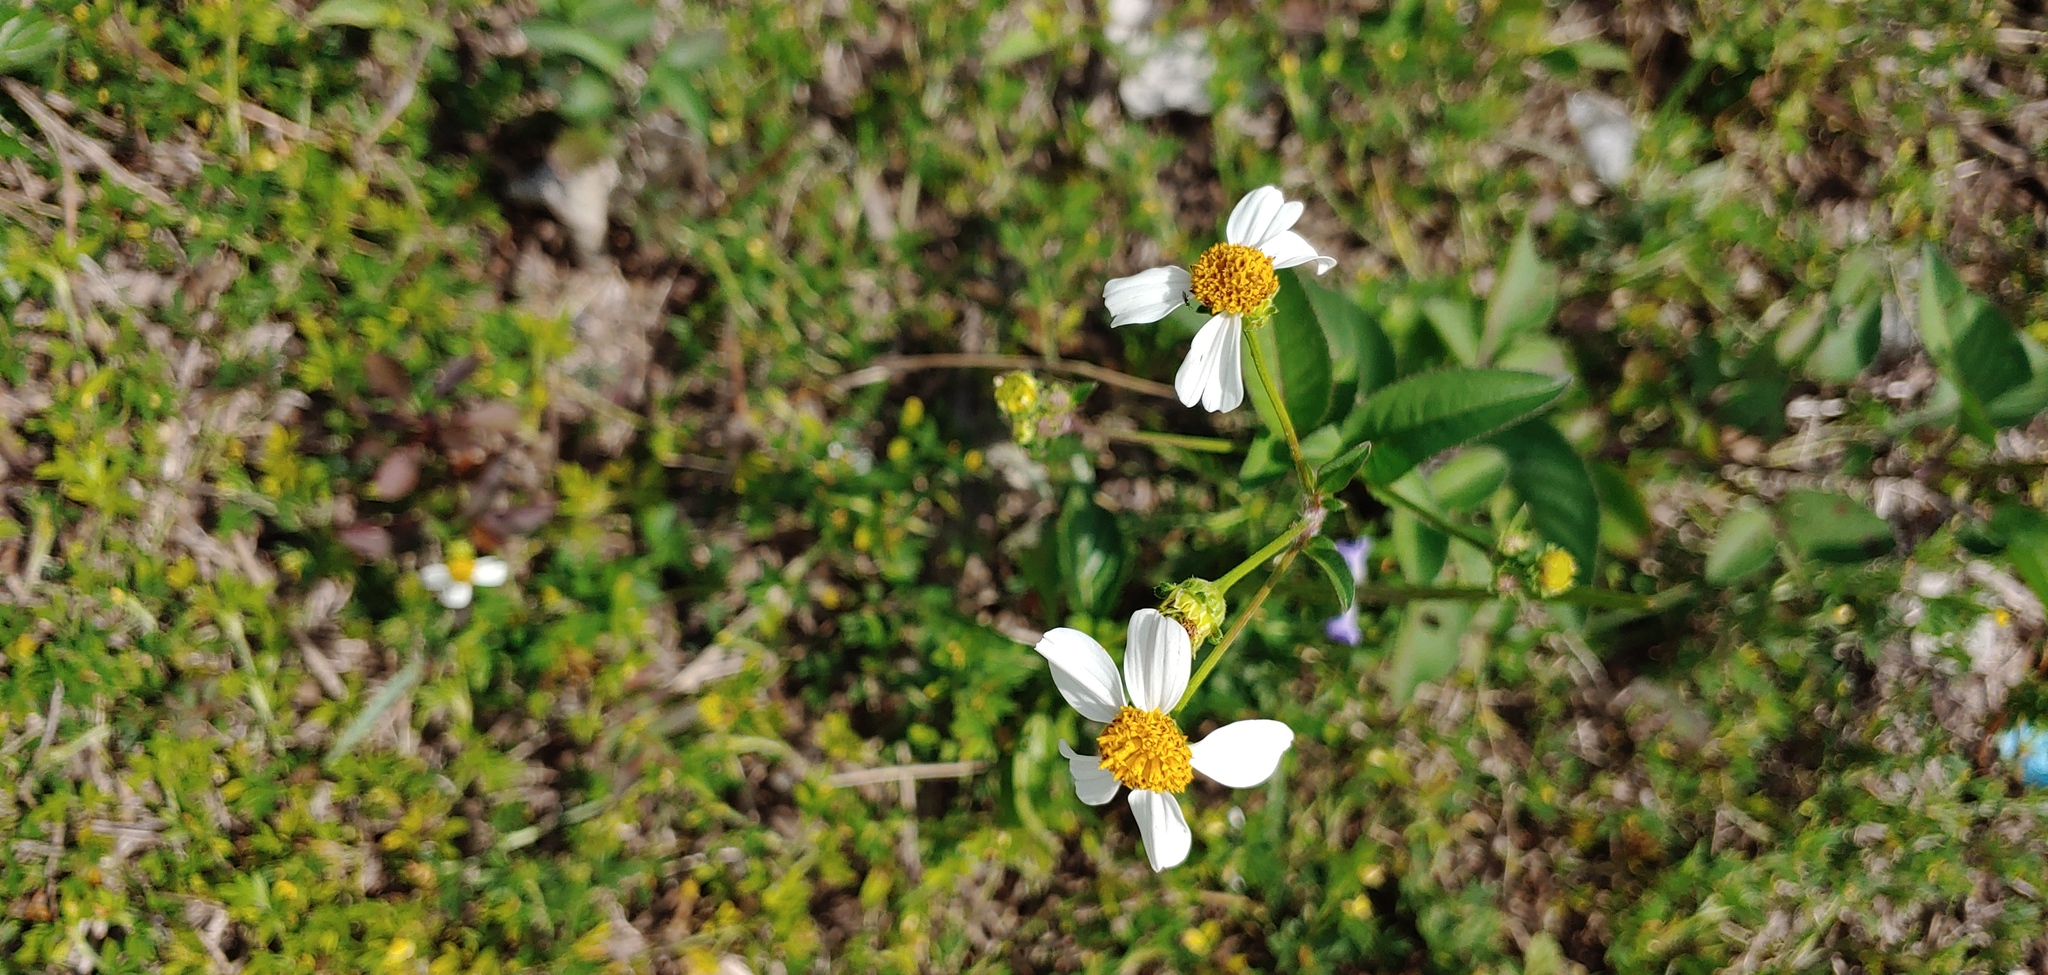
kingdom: Plantae
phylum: Tracheophyta
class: Magnoliopsida
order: Asterales
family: Asteraceae
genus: Bidens
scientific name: Bidens pilosa
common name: Black-jack
